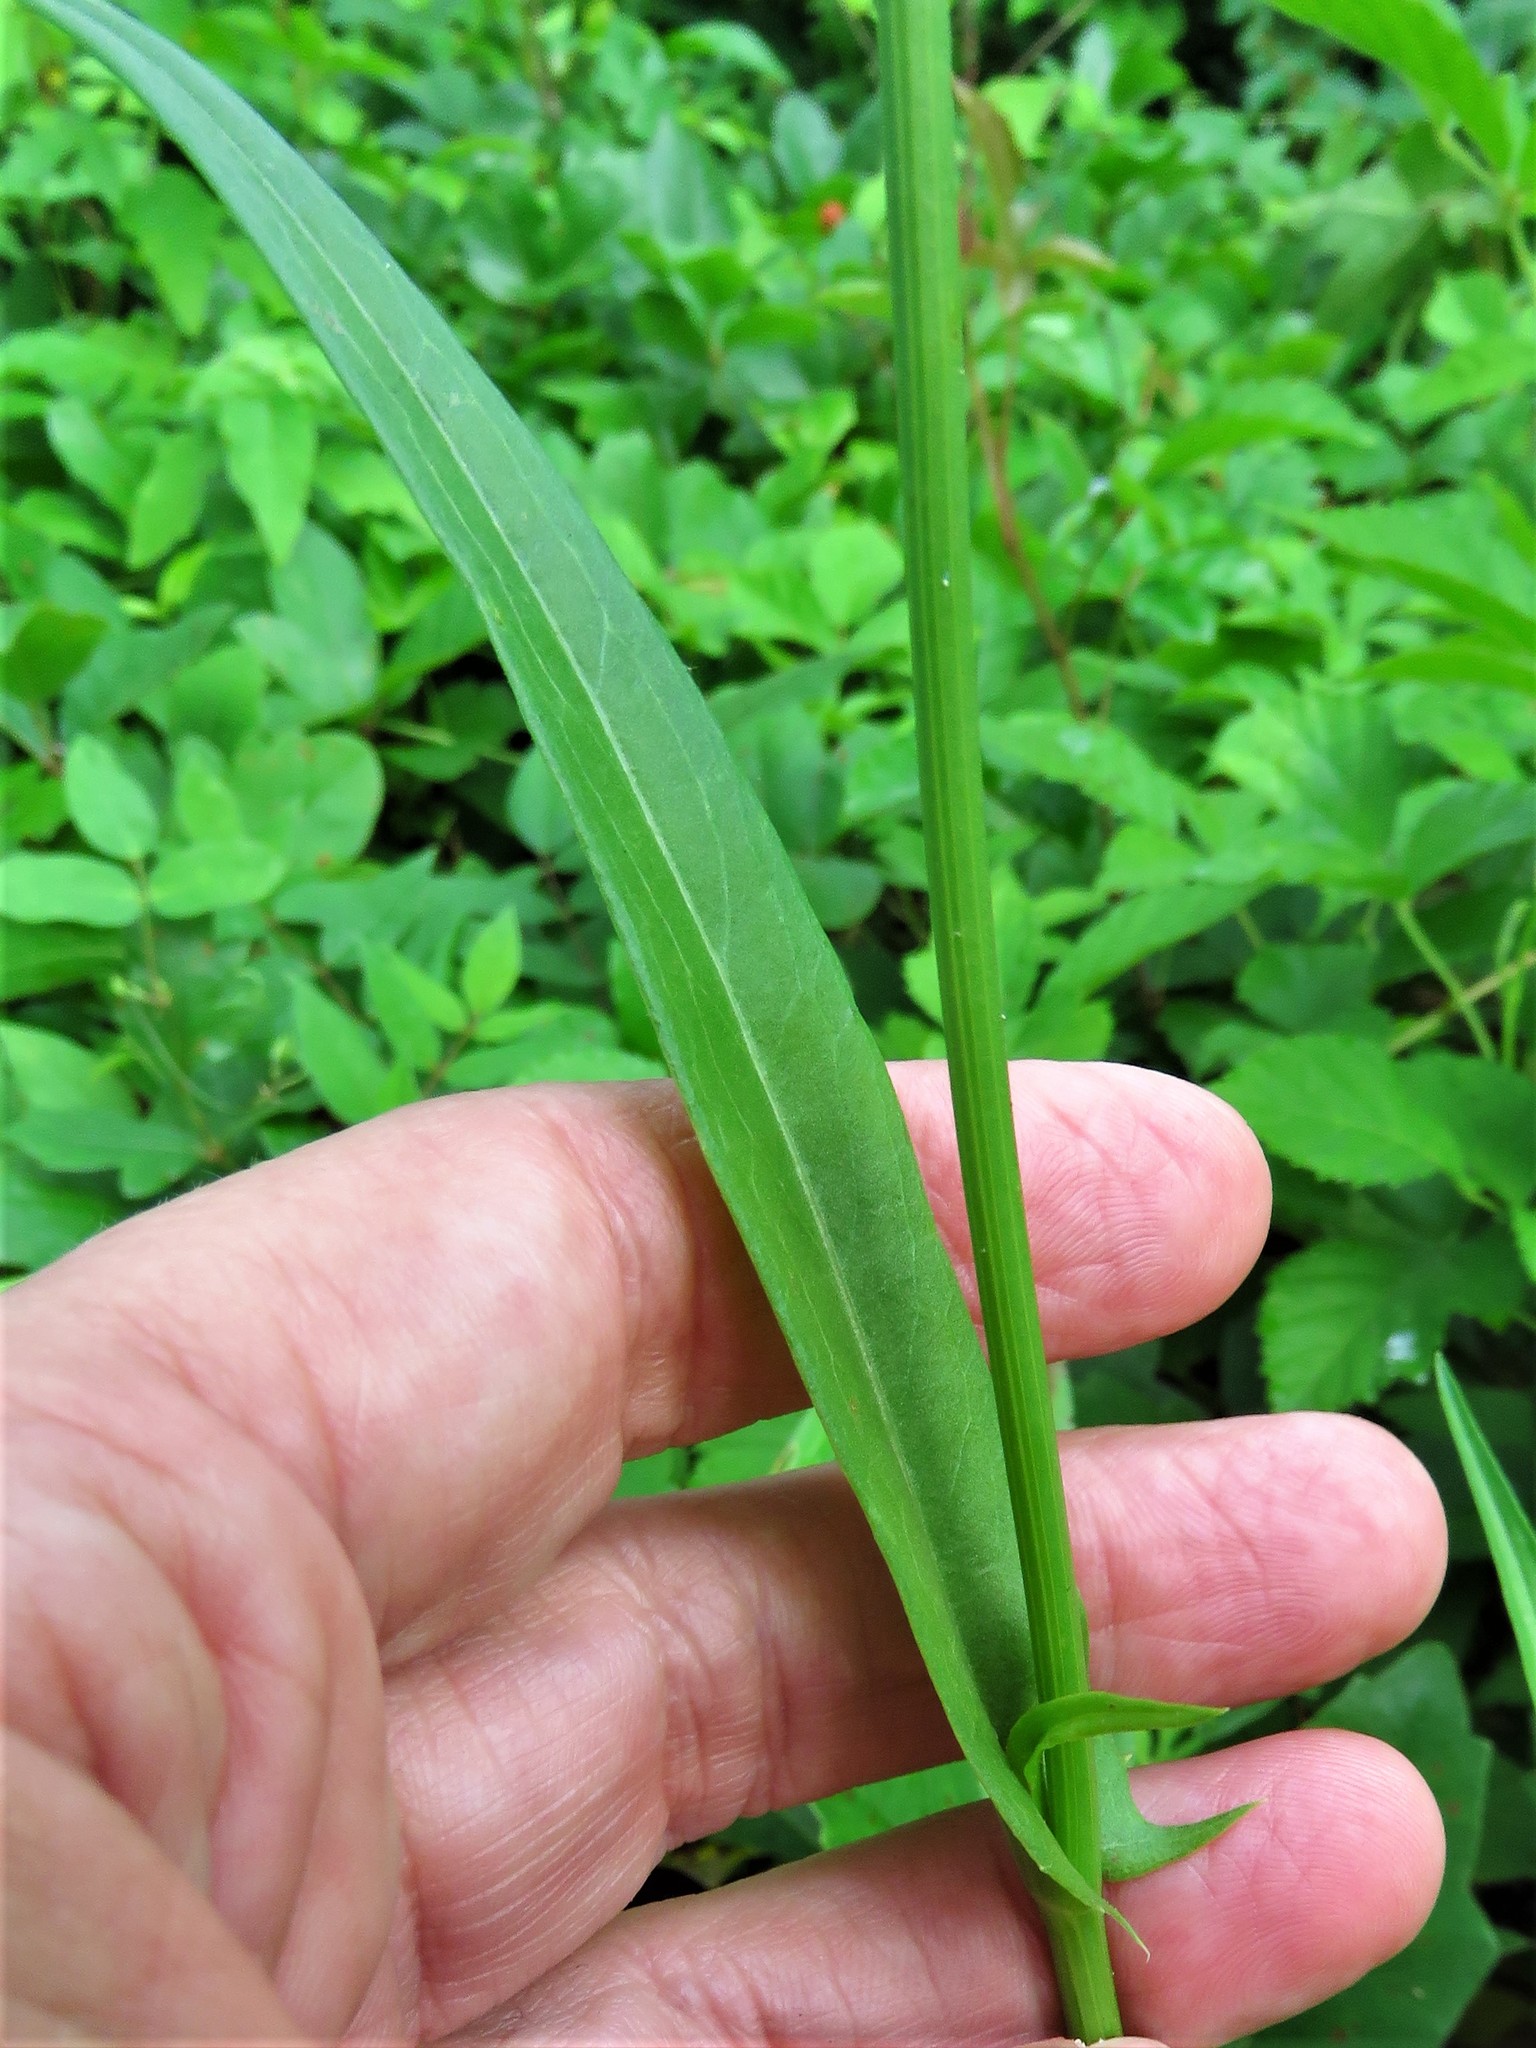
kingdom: Plantae
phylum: Tracheophyta
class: Magnoliopsida
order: Asterales
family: Asteraceae
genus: Pyrrhopappus
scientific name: Pyrrhopappus pauciflorus
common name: Texas false dandelion
